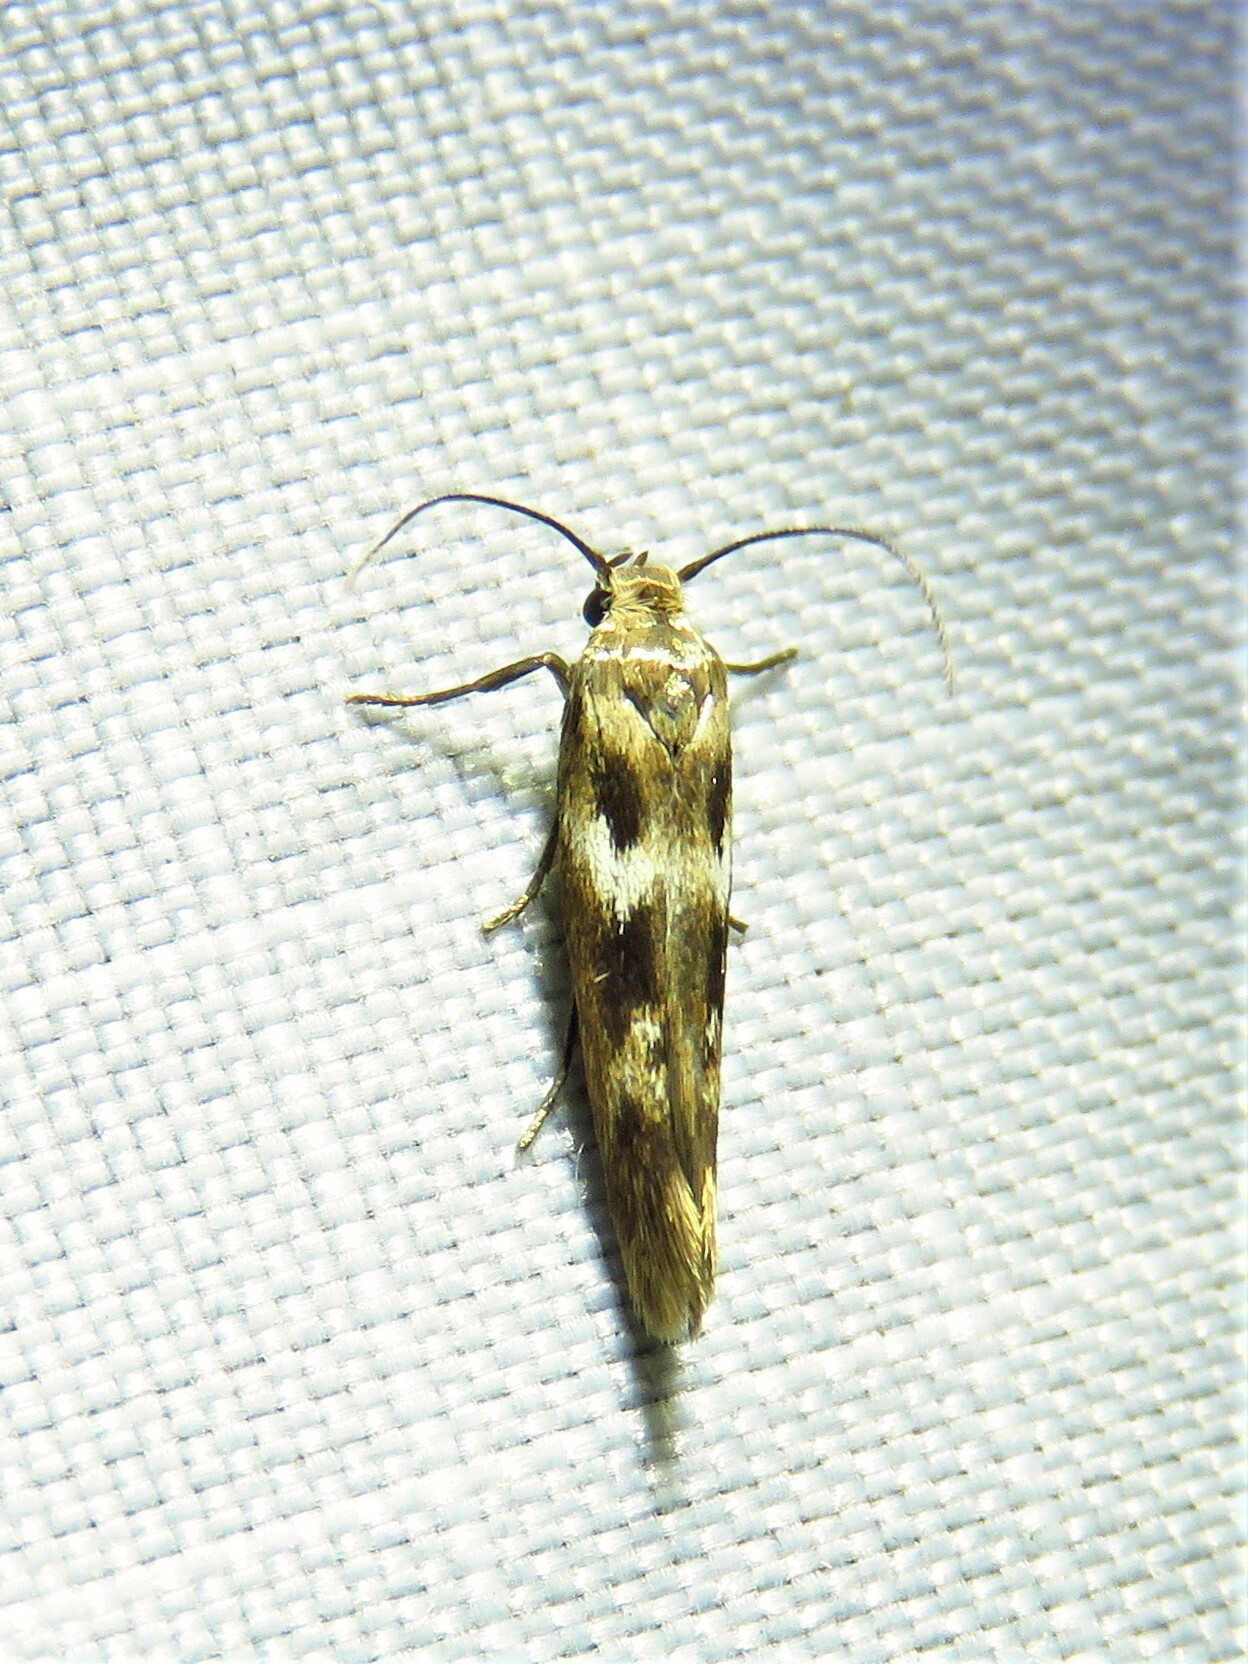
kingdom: Animalia
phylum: Arthropoda
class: Insecta
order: Lepidoptera
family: Scythrididae
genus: Scythris
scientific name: Scythris trivinctella
